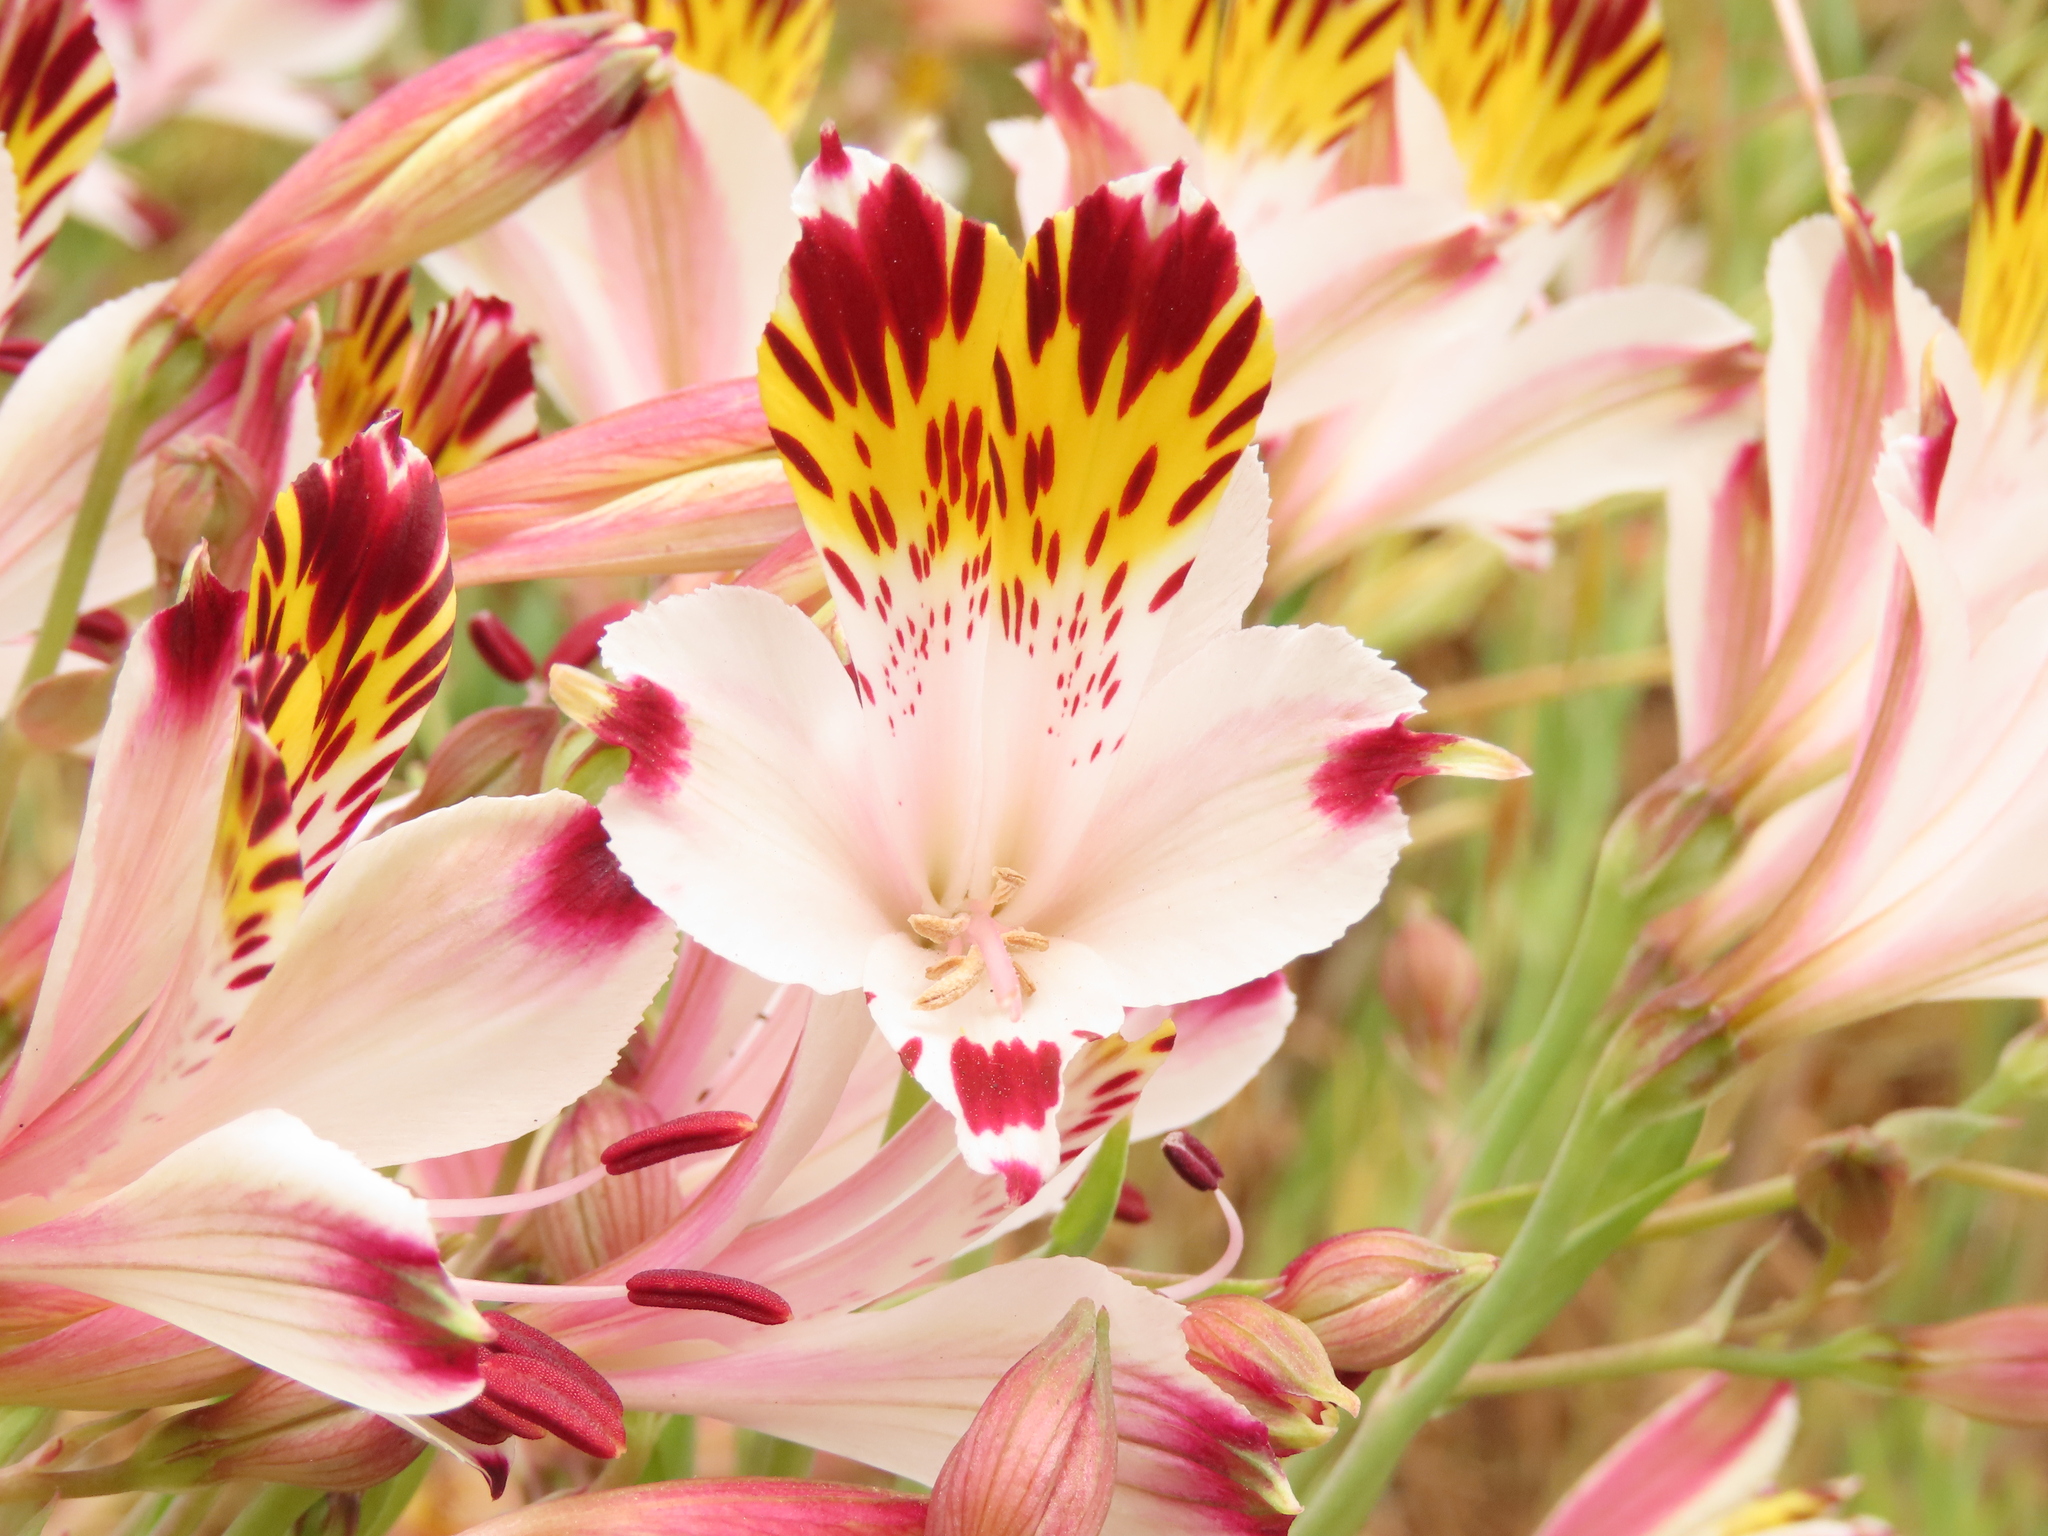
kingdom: Plantae
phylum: Tracheophyta
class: Liliopsida
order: Liliales
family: Alstroemeriaceae
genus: Alstroemeria
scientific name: Alstroemeria pulchra
